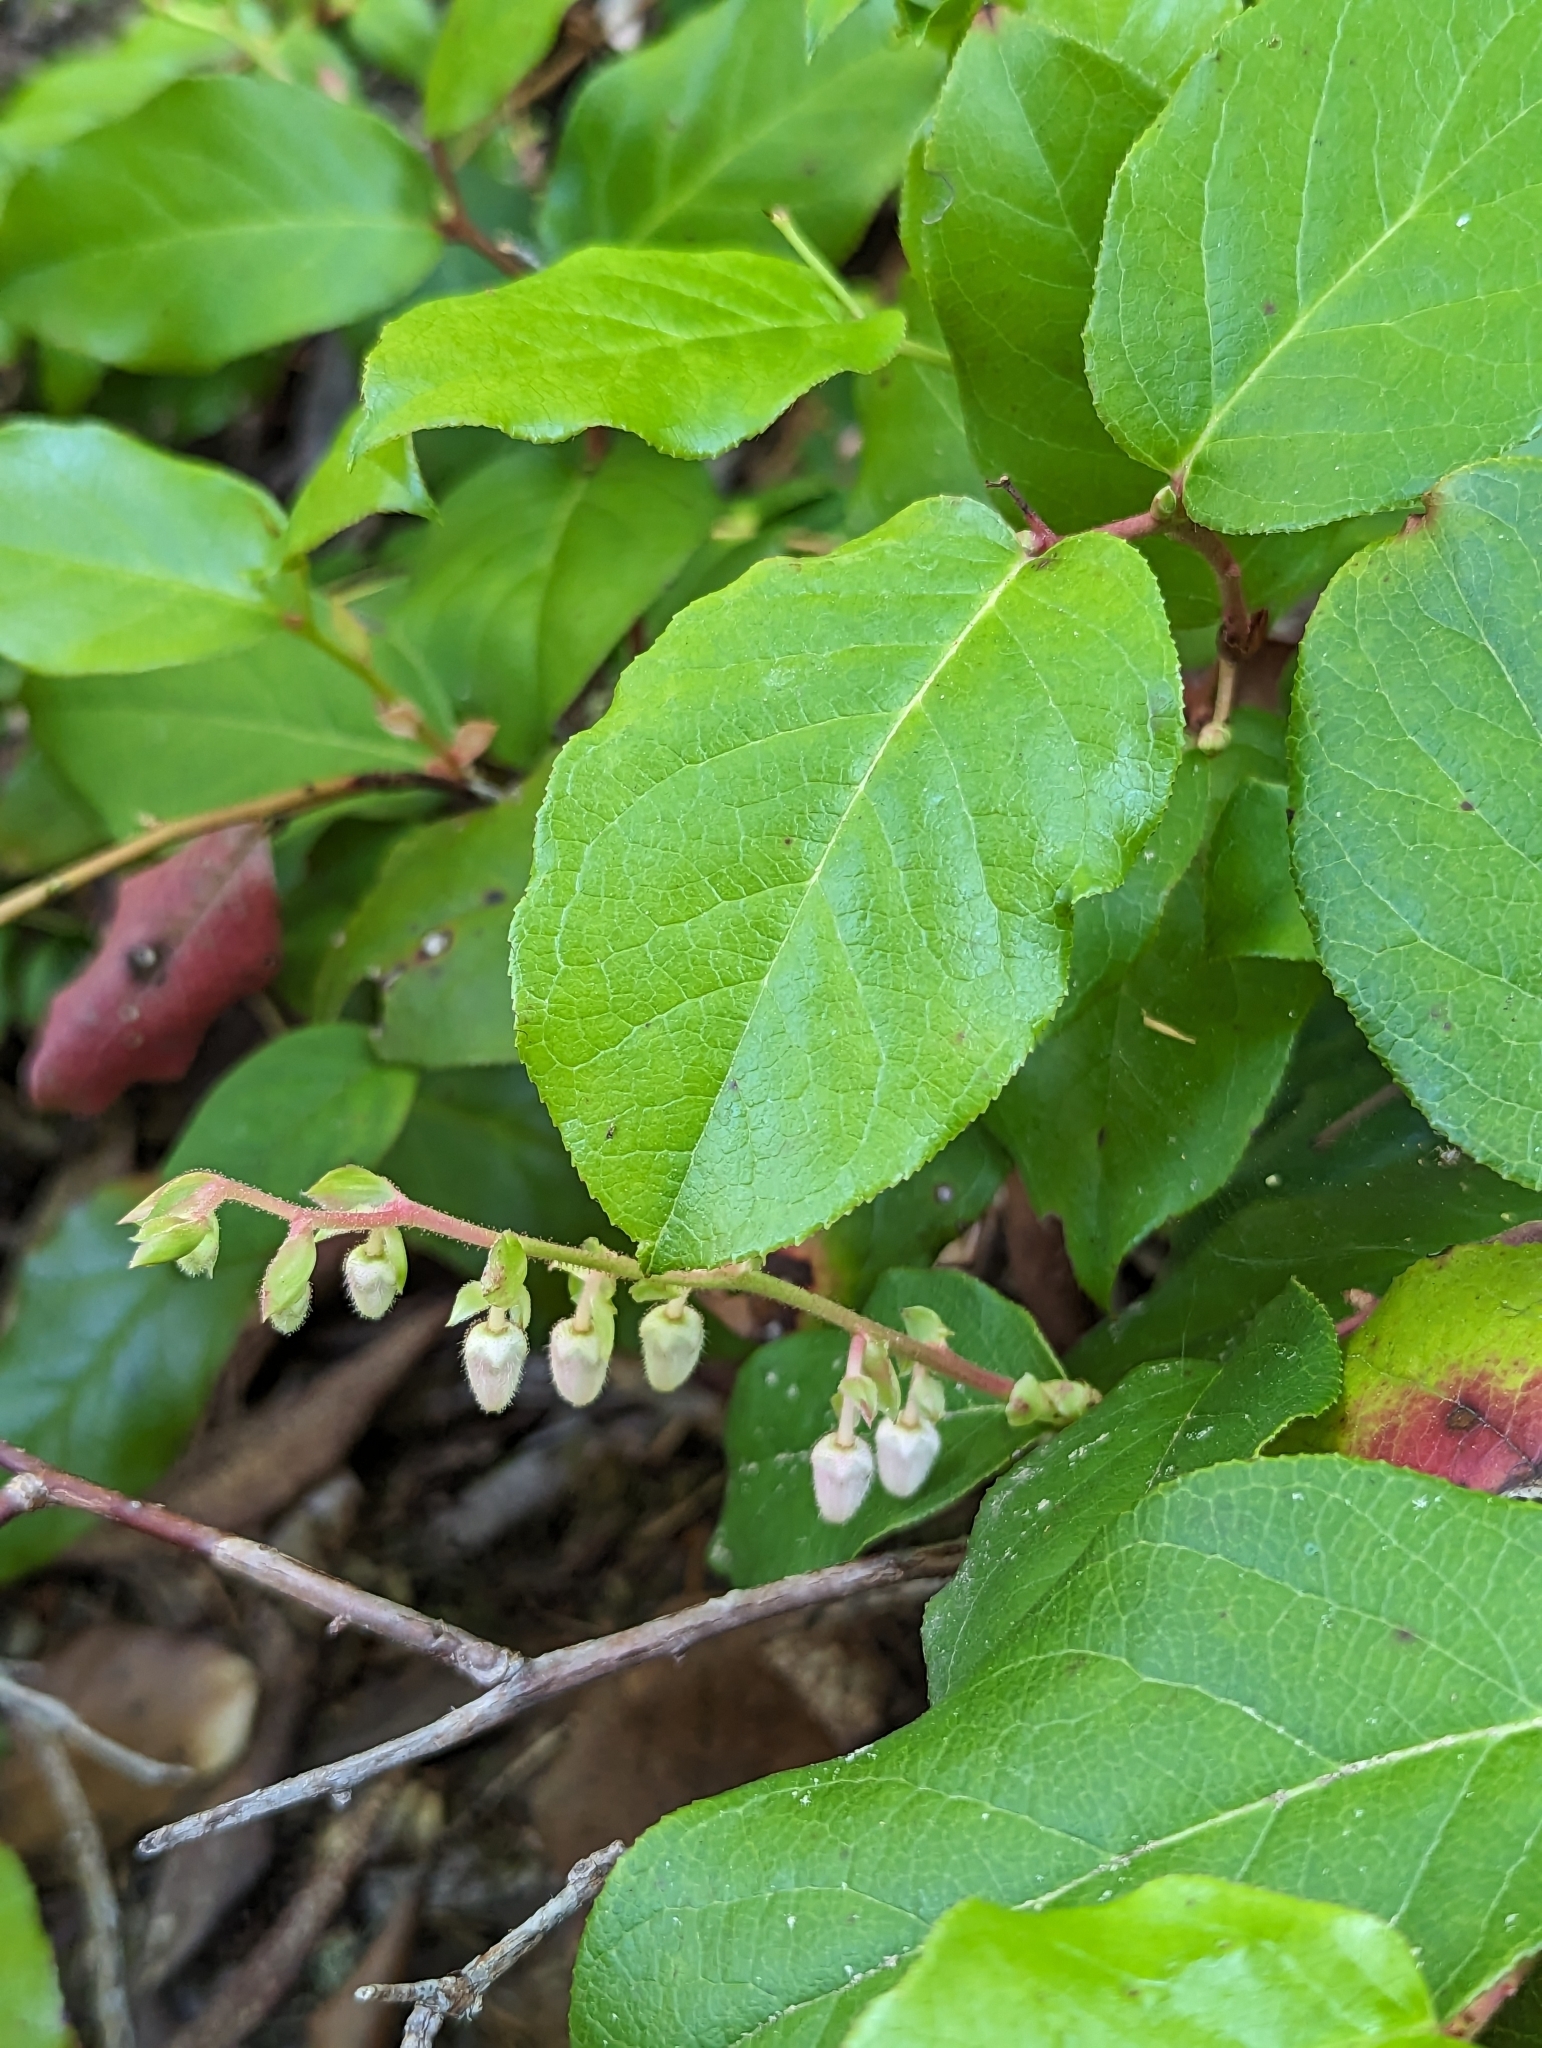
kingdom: Plantae
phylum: Tracheophyta
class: Magnoliopsida
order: Ericales
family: Ericaceae
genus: Gaultheria
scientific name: Gaultheria shallon
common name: Shallon
